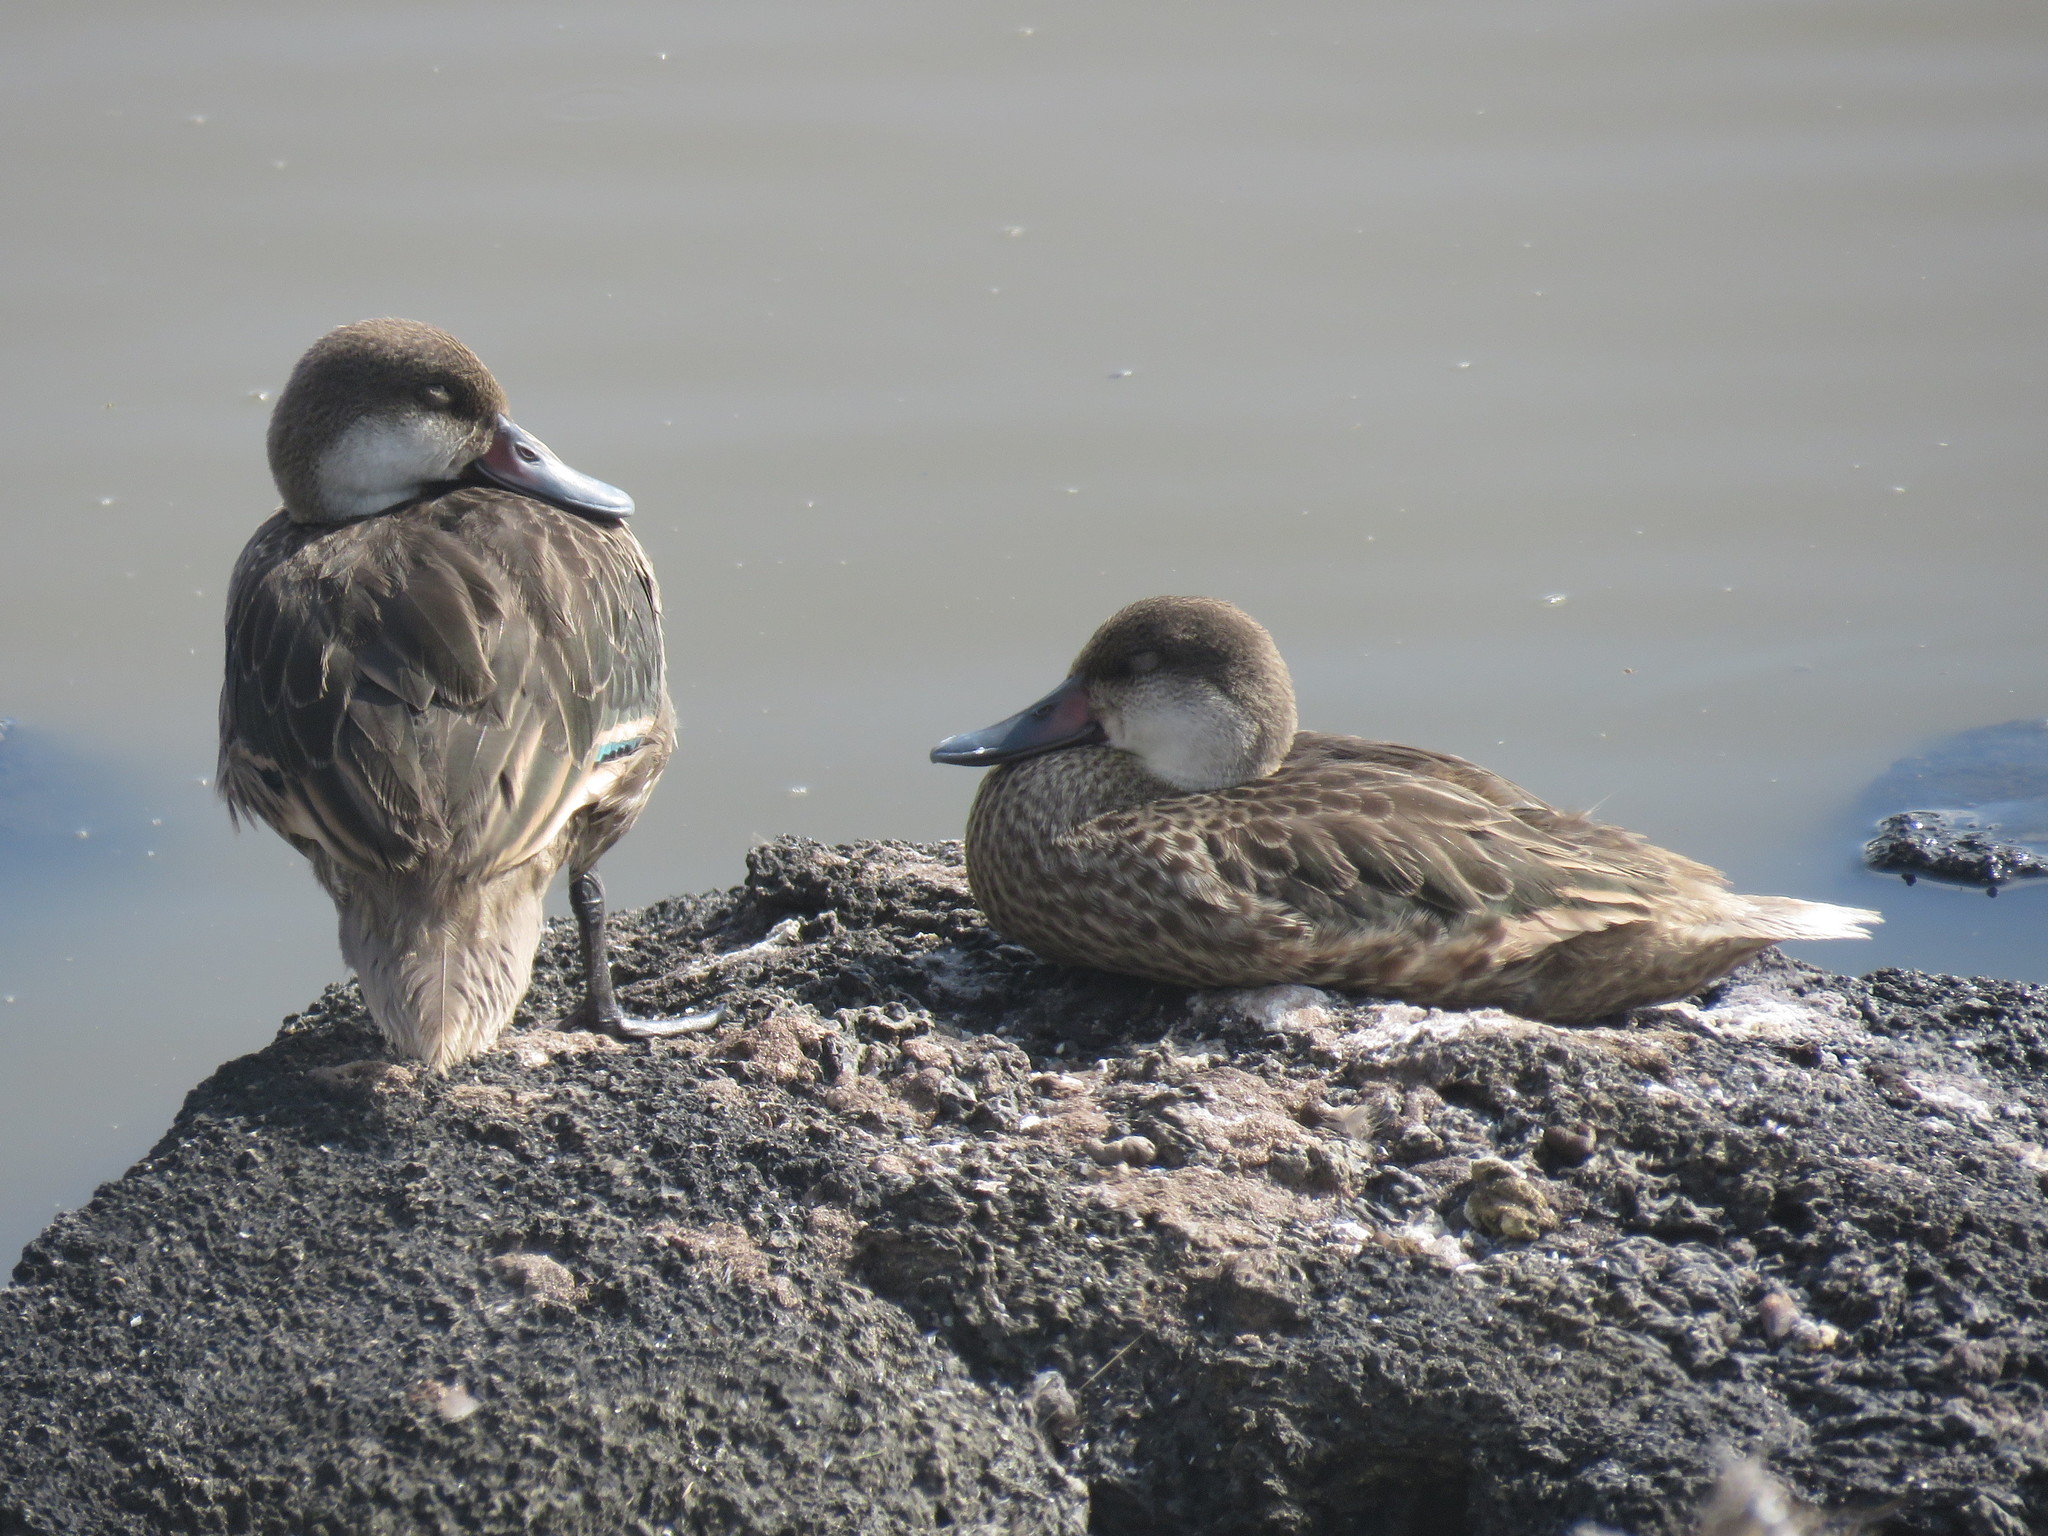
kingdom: Animalia
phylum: Chordata
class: Aves
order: Anseriformes
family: Anatidae
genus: Anas
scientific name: Anas bahamensis
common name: White-cheeked pintail
